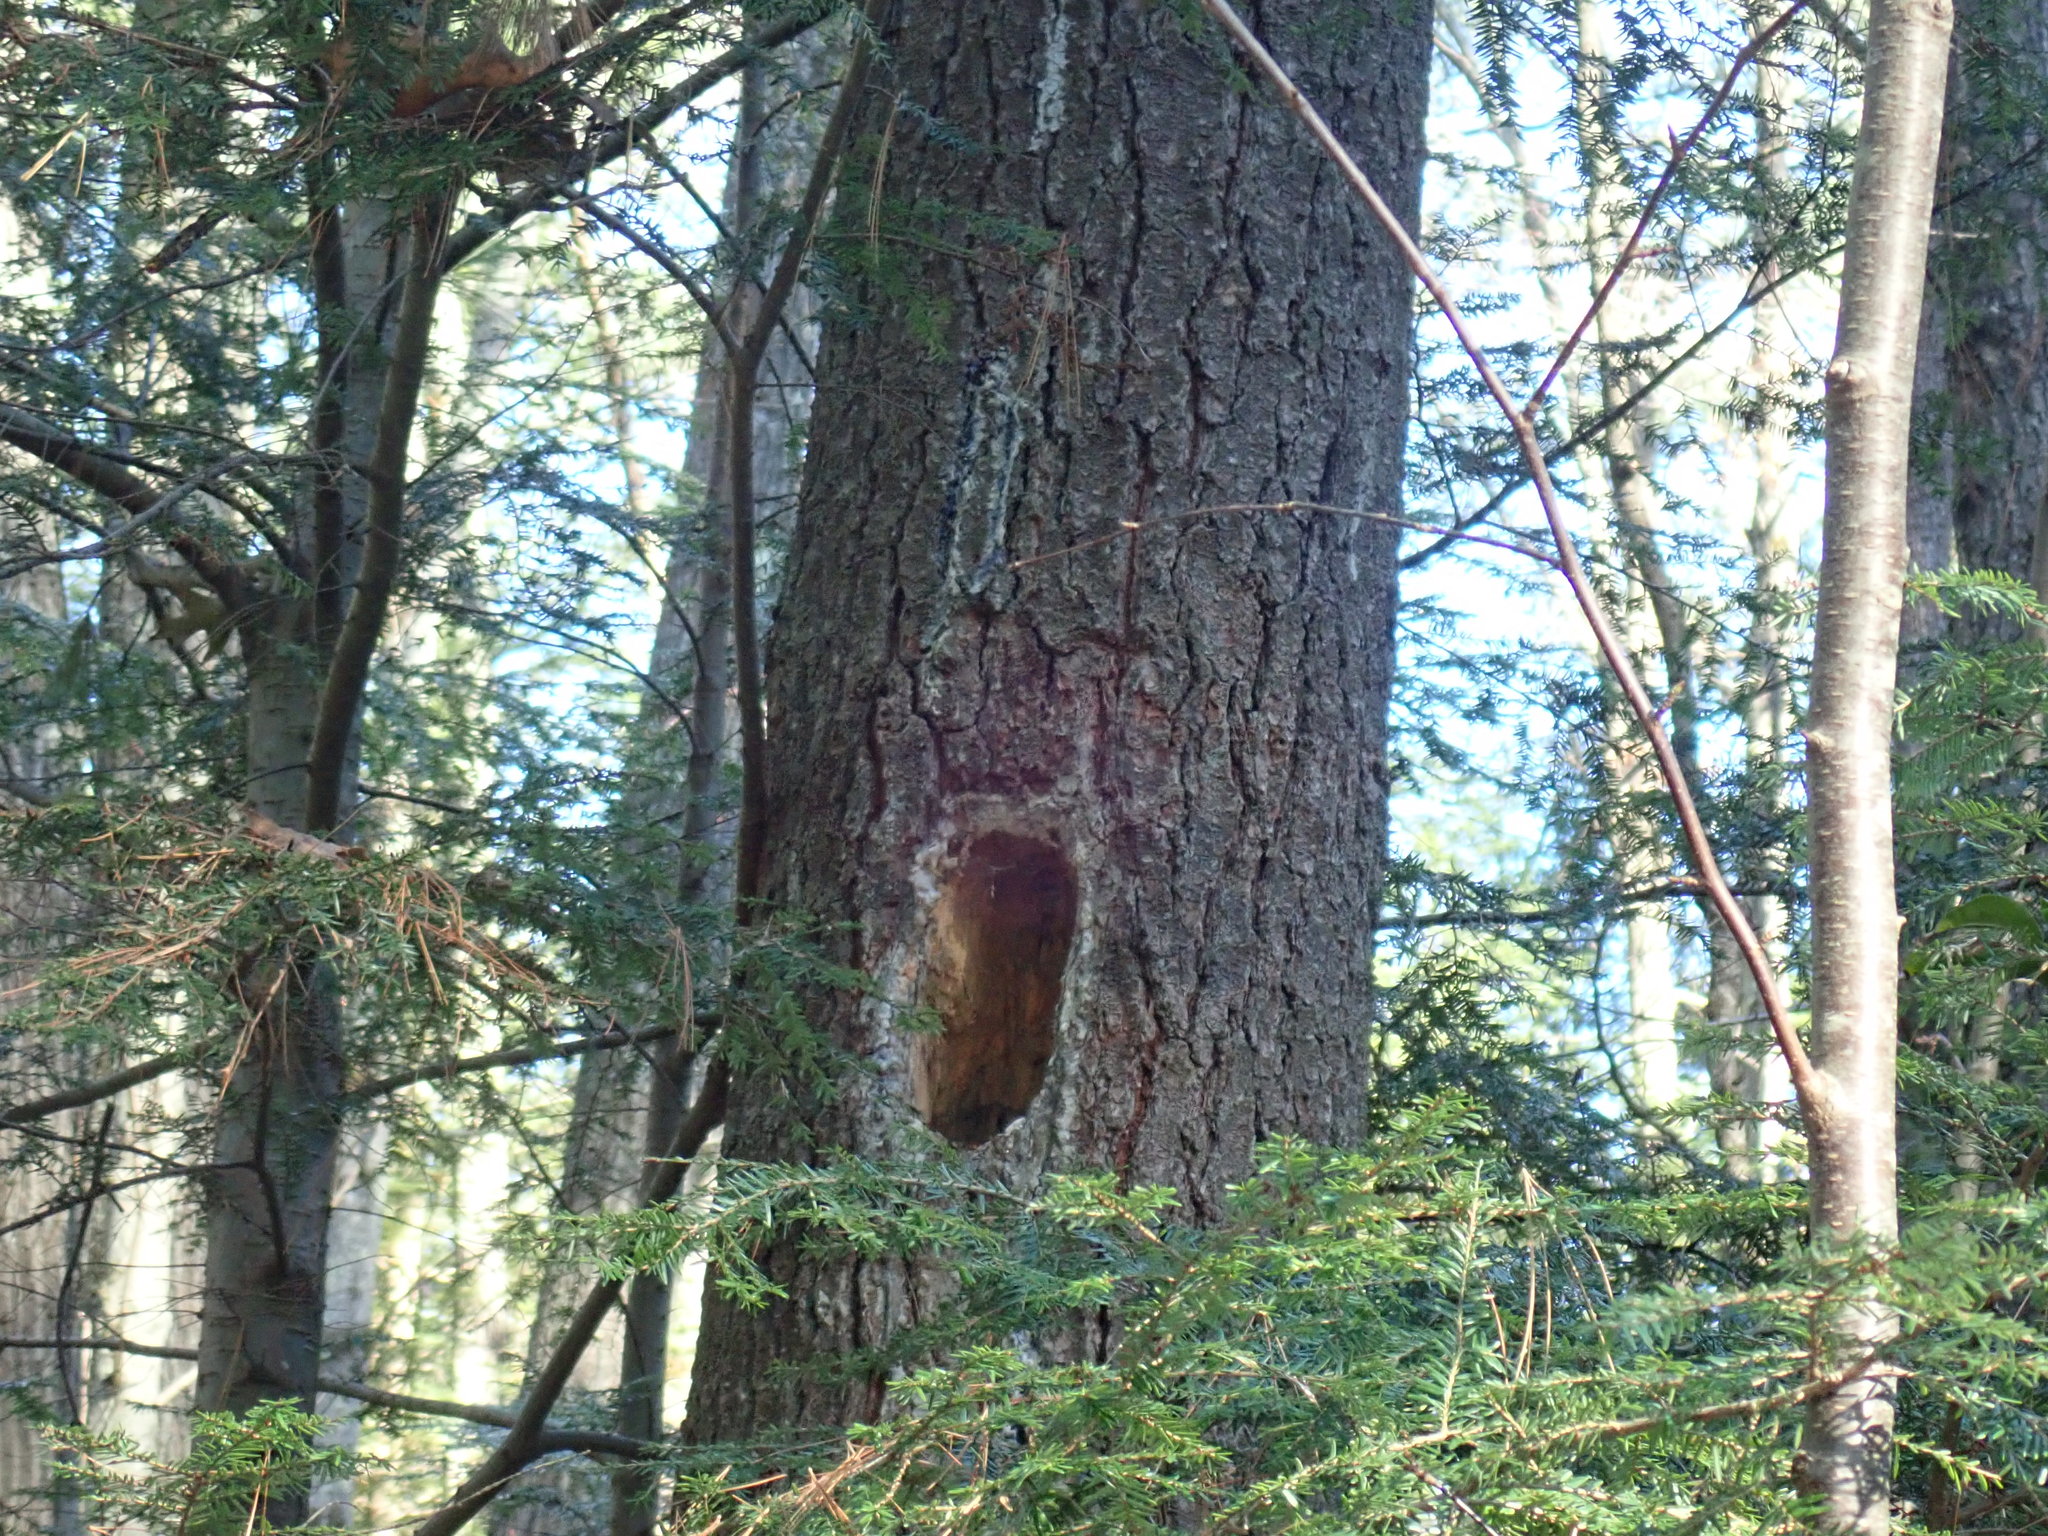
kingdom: Animalia
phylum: Chordata
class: Aves
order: Piciformes
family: Picidae
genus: Dryocopus
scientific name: Dryocopus pileatus
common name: Pileated woodpecker
